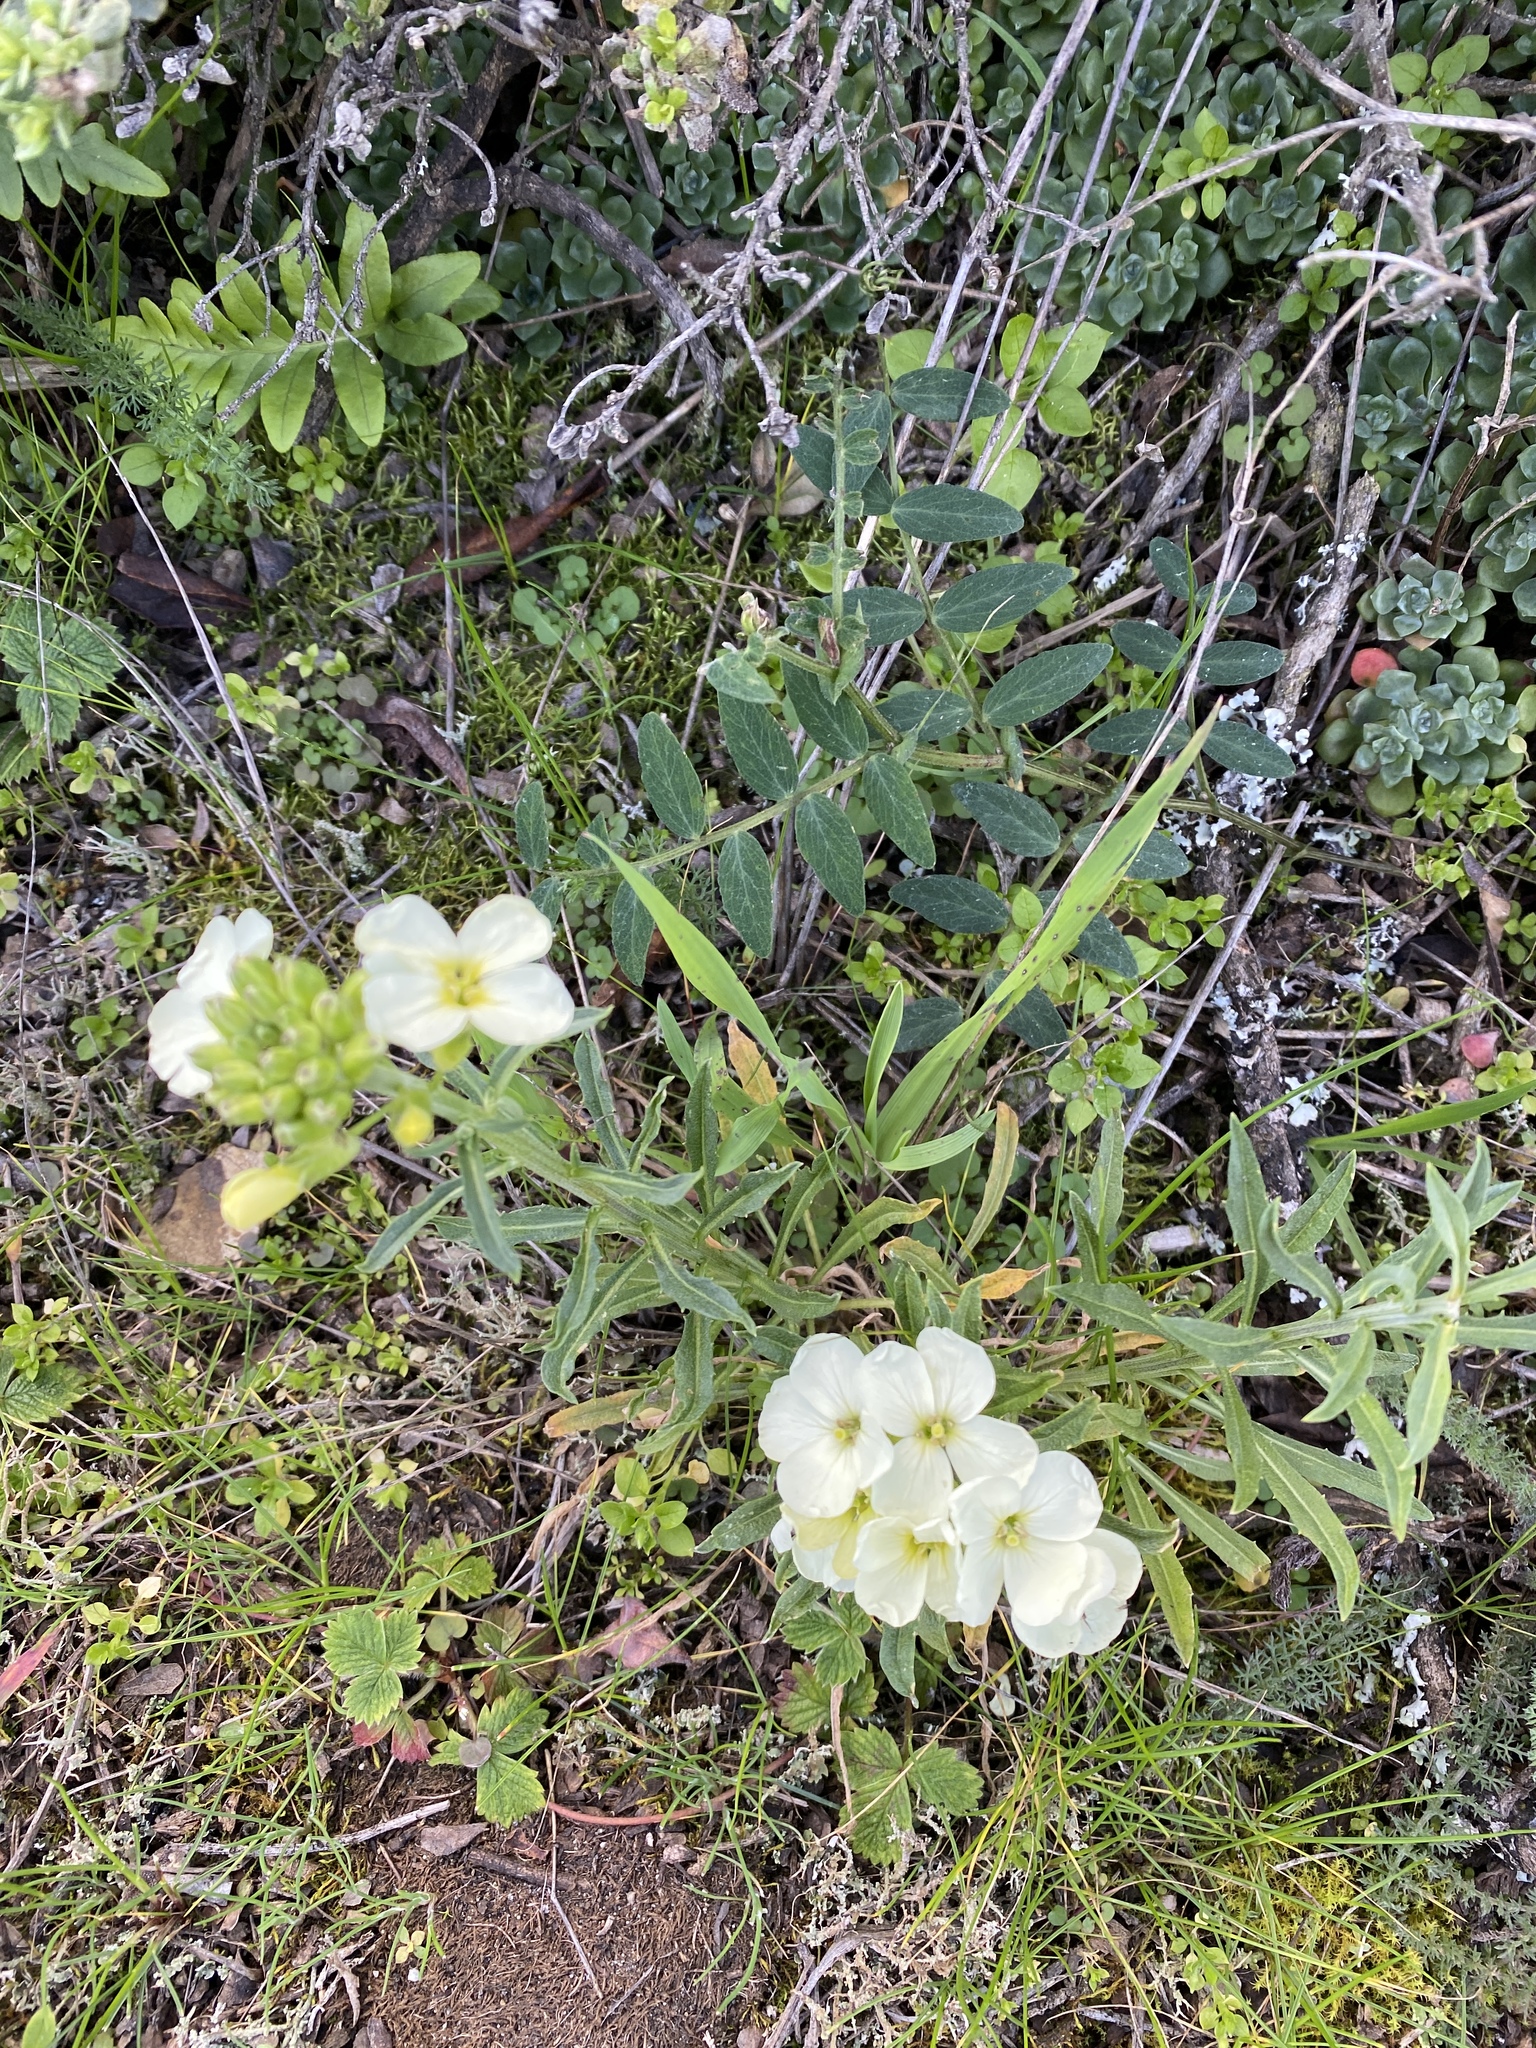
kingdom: Plantae
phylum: Tracheophyta
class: Magnoliopsida
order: Brassicales
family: Brassicaceae
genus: Erysimum
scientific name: Erysimum franciscanum
